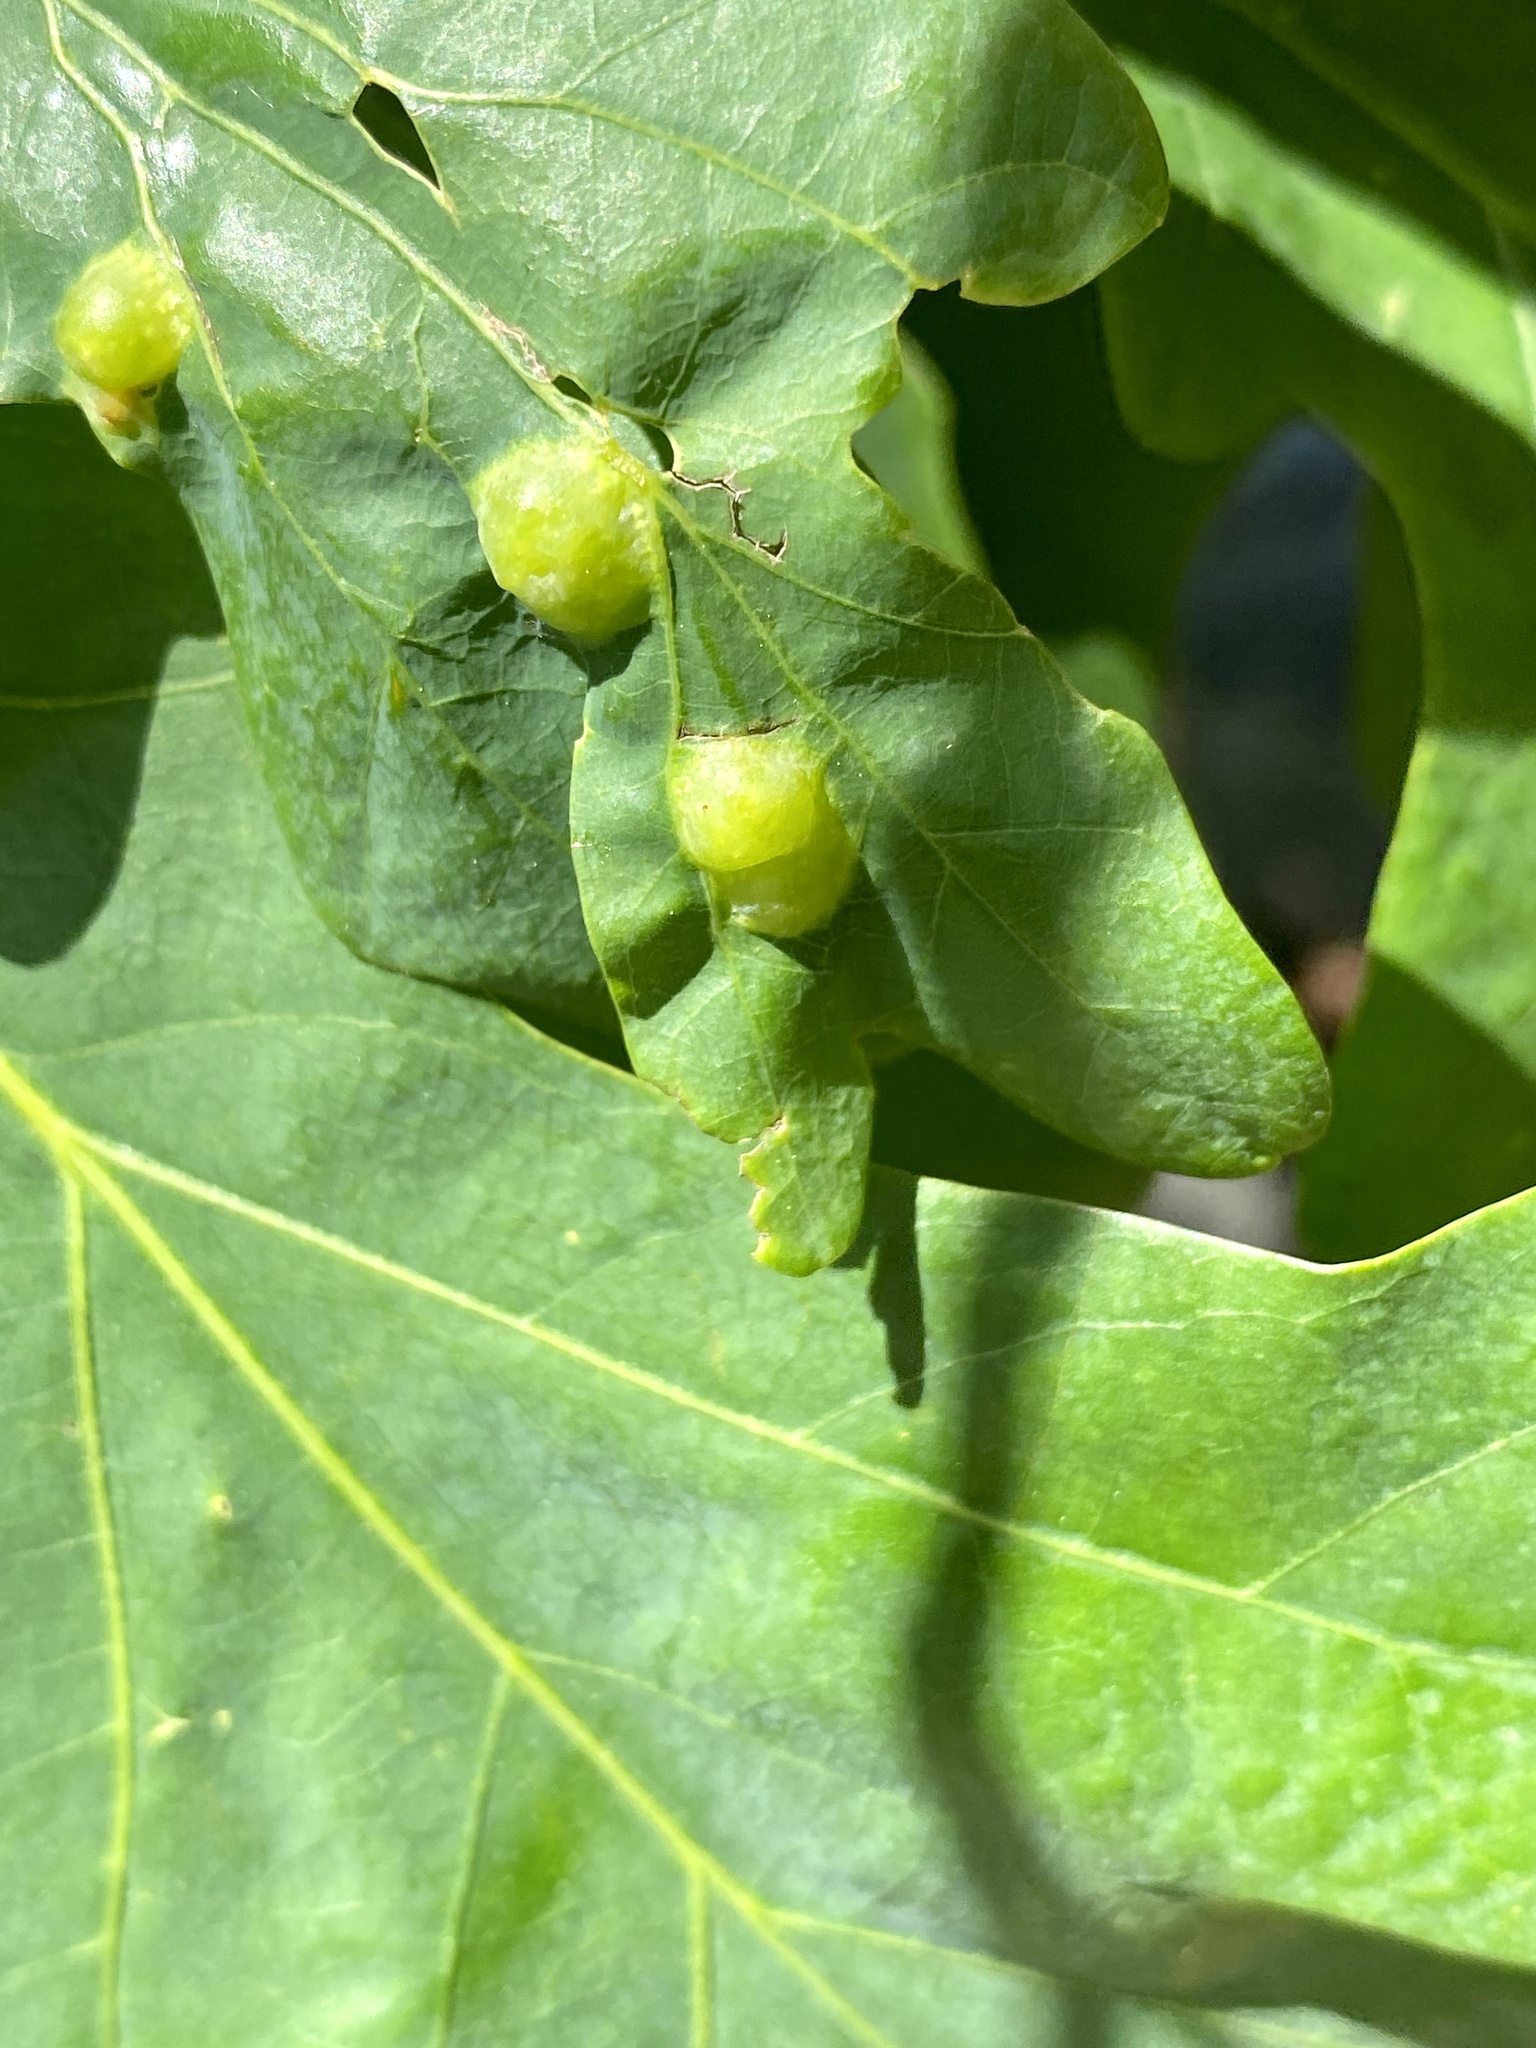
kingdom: Animalia
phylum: Arthropoda
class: Insecta
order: Hymenoptera
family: Cynipidae
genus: Callirhytis
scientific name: Callirhytis
